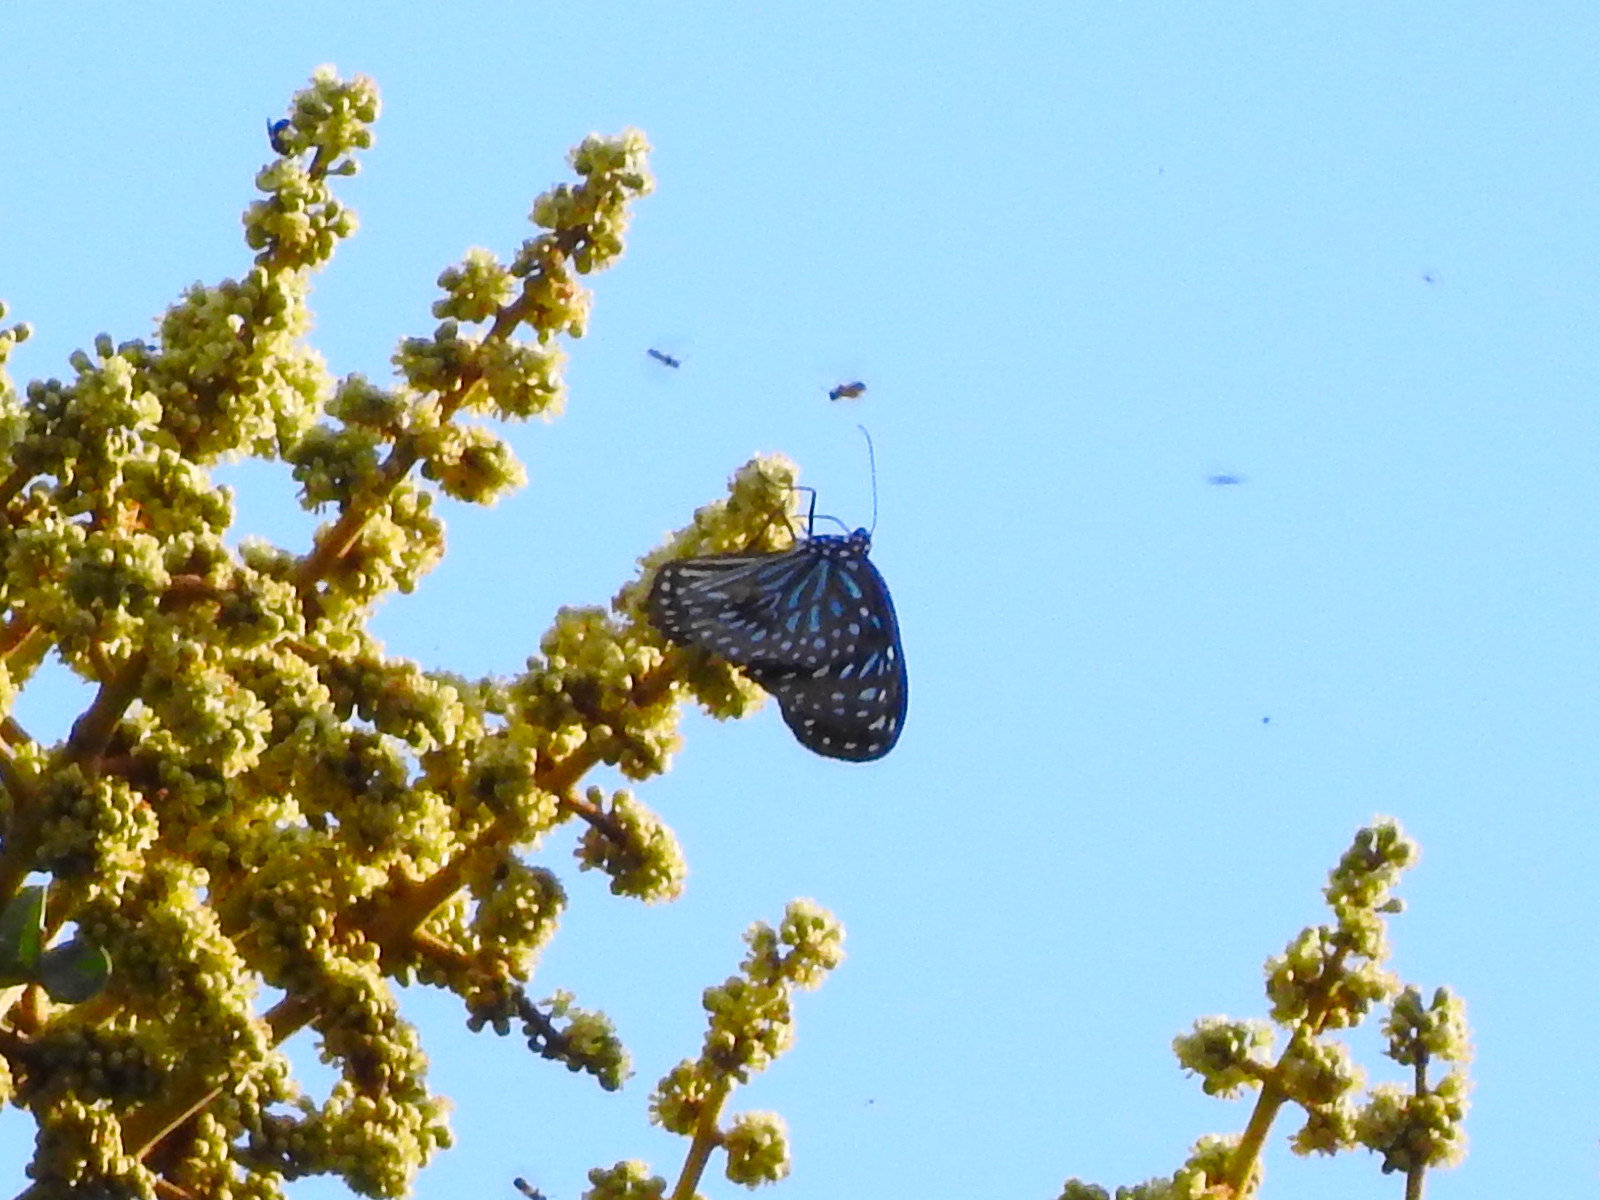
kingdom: Animalia
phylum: Arthropoda
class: Insecta
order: Lepidoptera
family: Nymphalidae
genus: Tirumala
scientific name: Tirumala septentrionis
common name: Dark blue tiger butterfly
